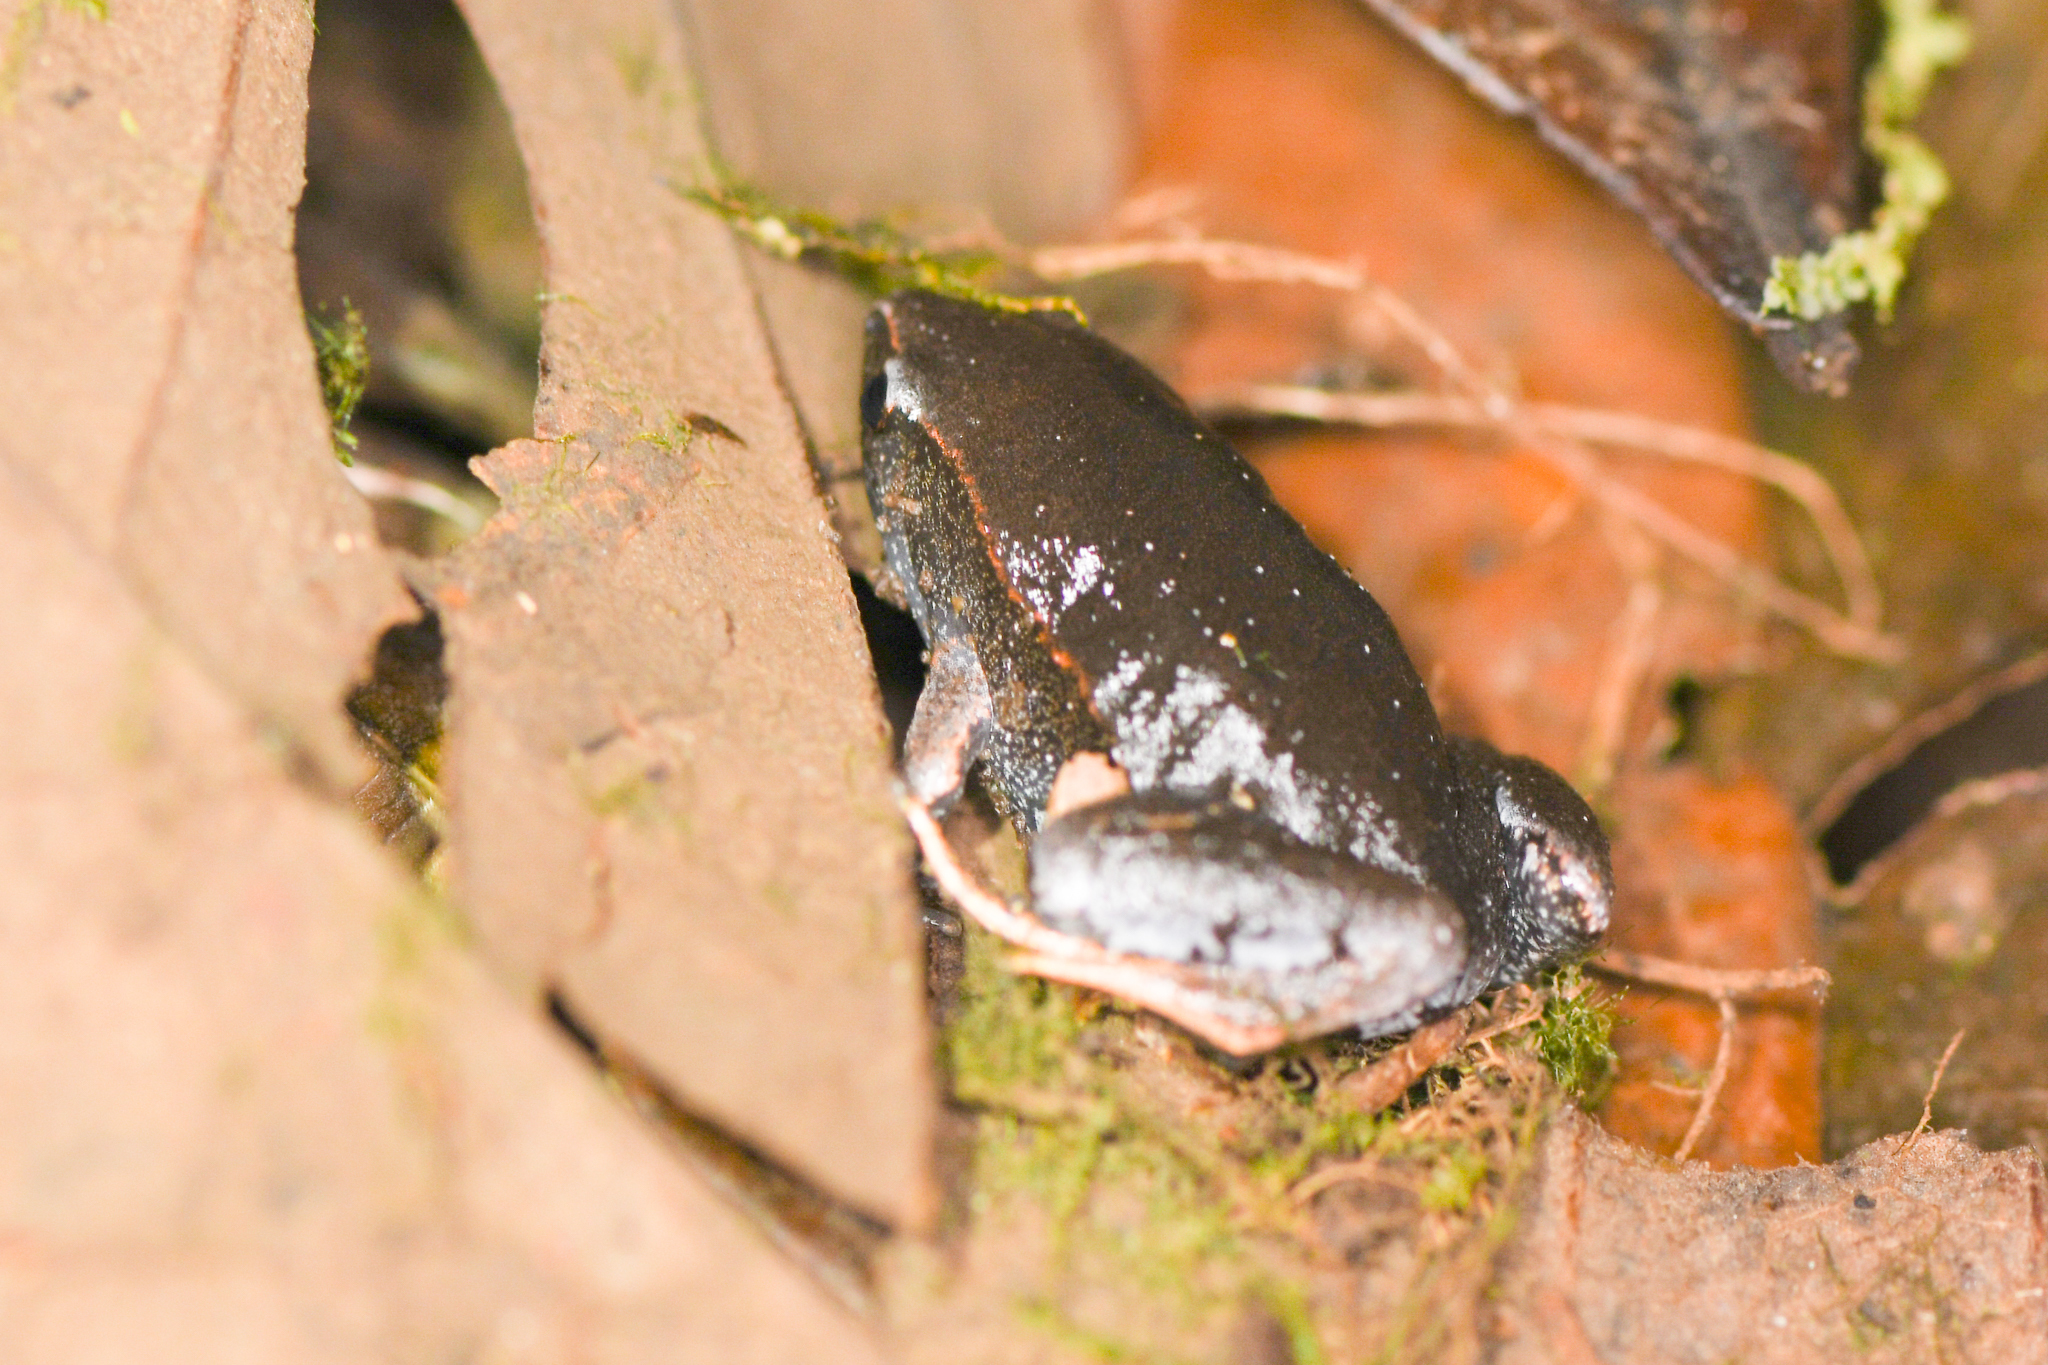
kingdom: Animalia
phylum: Chordata
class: Amphibia
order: Anura
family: Microhylidae
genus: Hypopachus
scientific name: Hypopachus pictiventris
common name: Nicaragua narrowmouth toad
